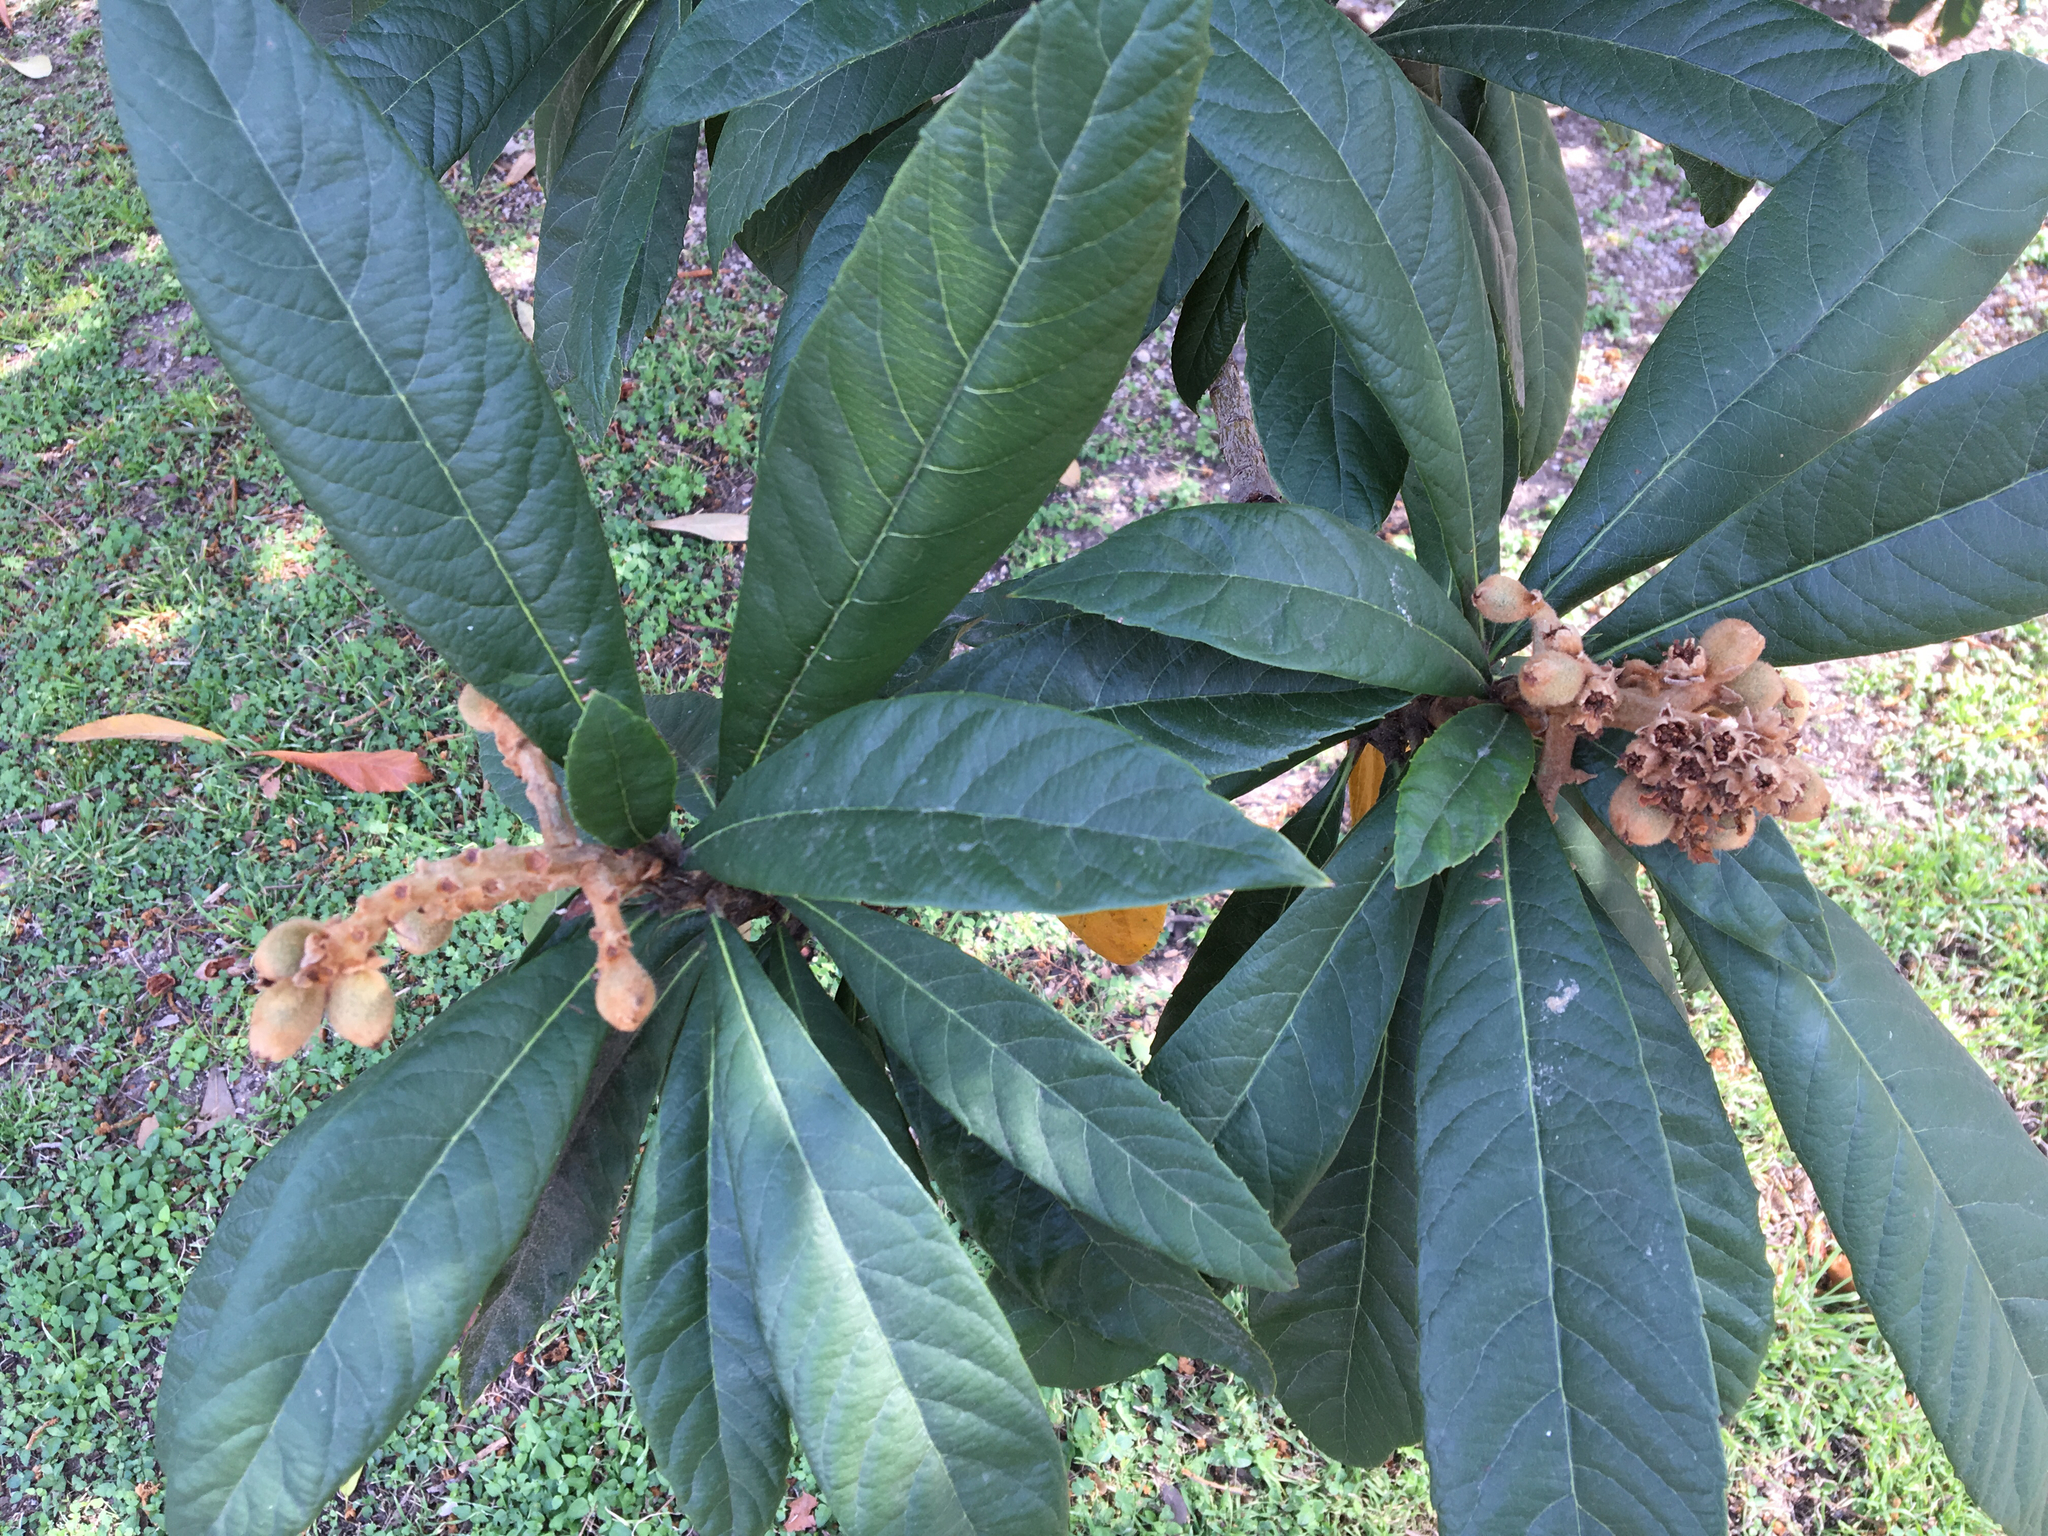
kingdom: Plantae
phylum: Tracheophyta
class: Magnoliopsida
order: Rosales
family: Rosaceae
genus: Rhaphiolepis
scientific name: Rhaphiolepis bibas
